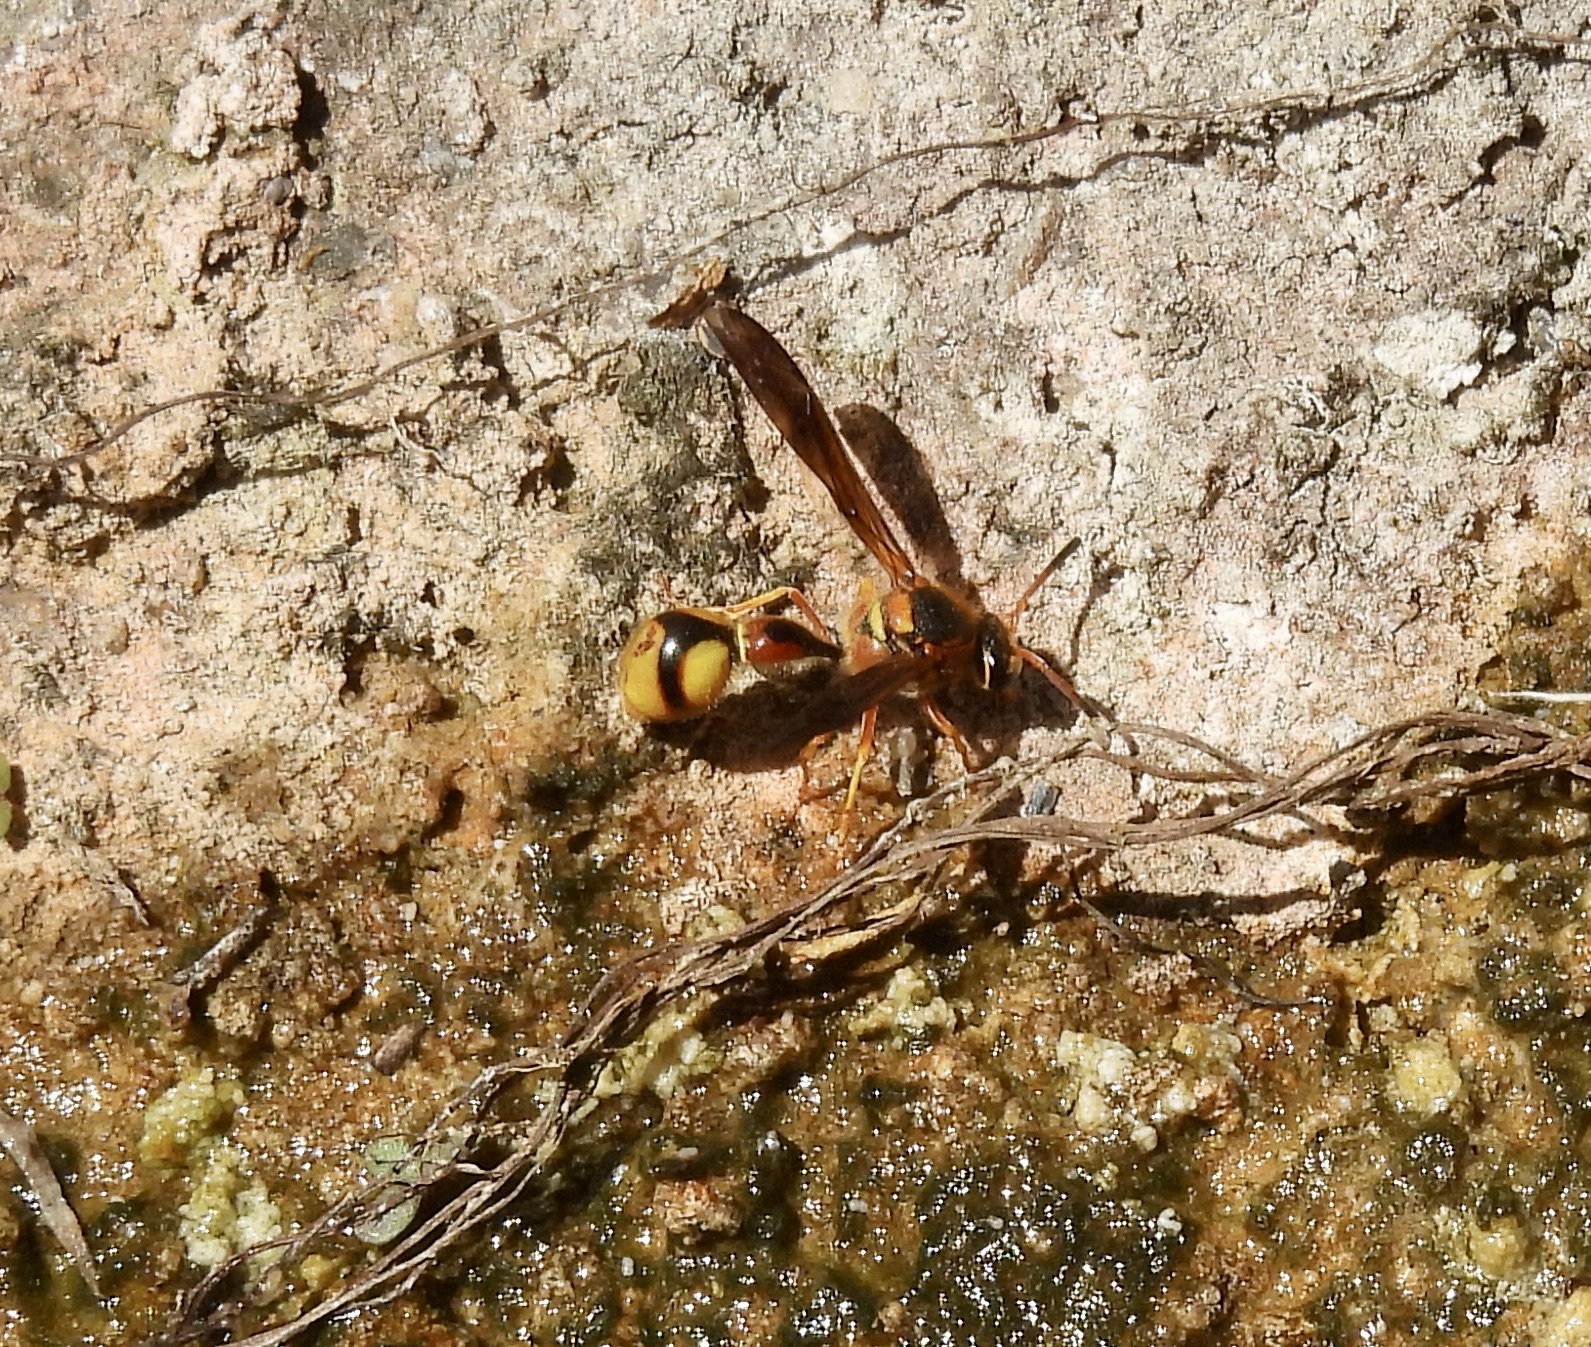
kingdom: Animalia
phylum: Arthropoda
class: Insecta
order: Hymenoptera
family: Vespidae
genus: Eumenes
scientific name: Eumenes bollii
